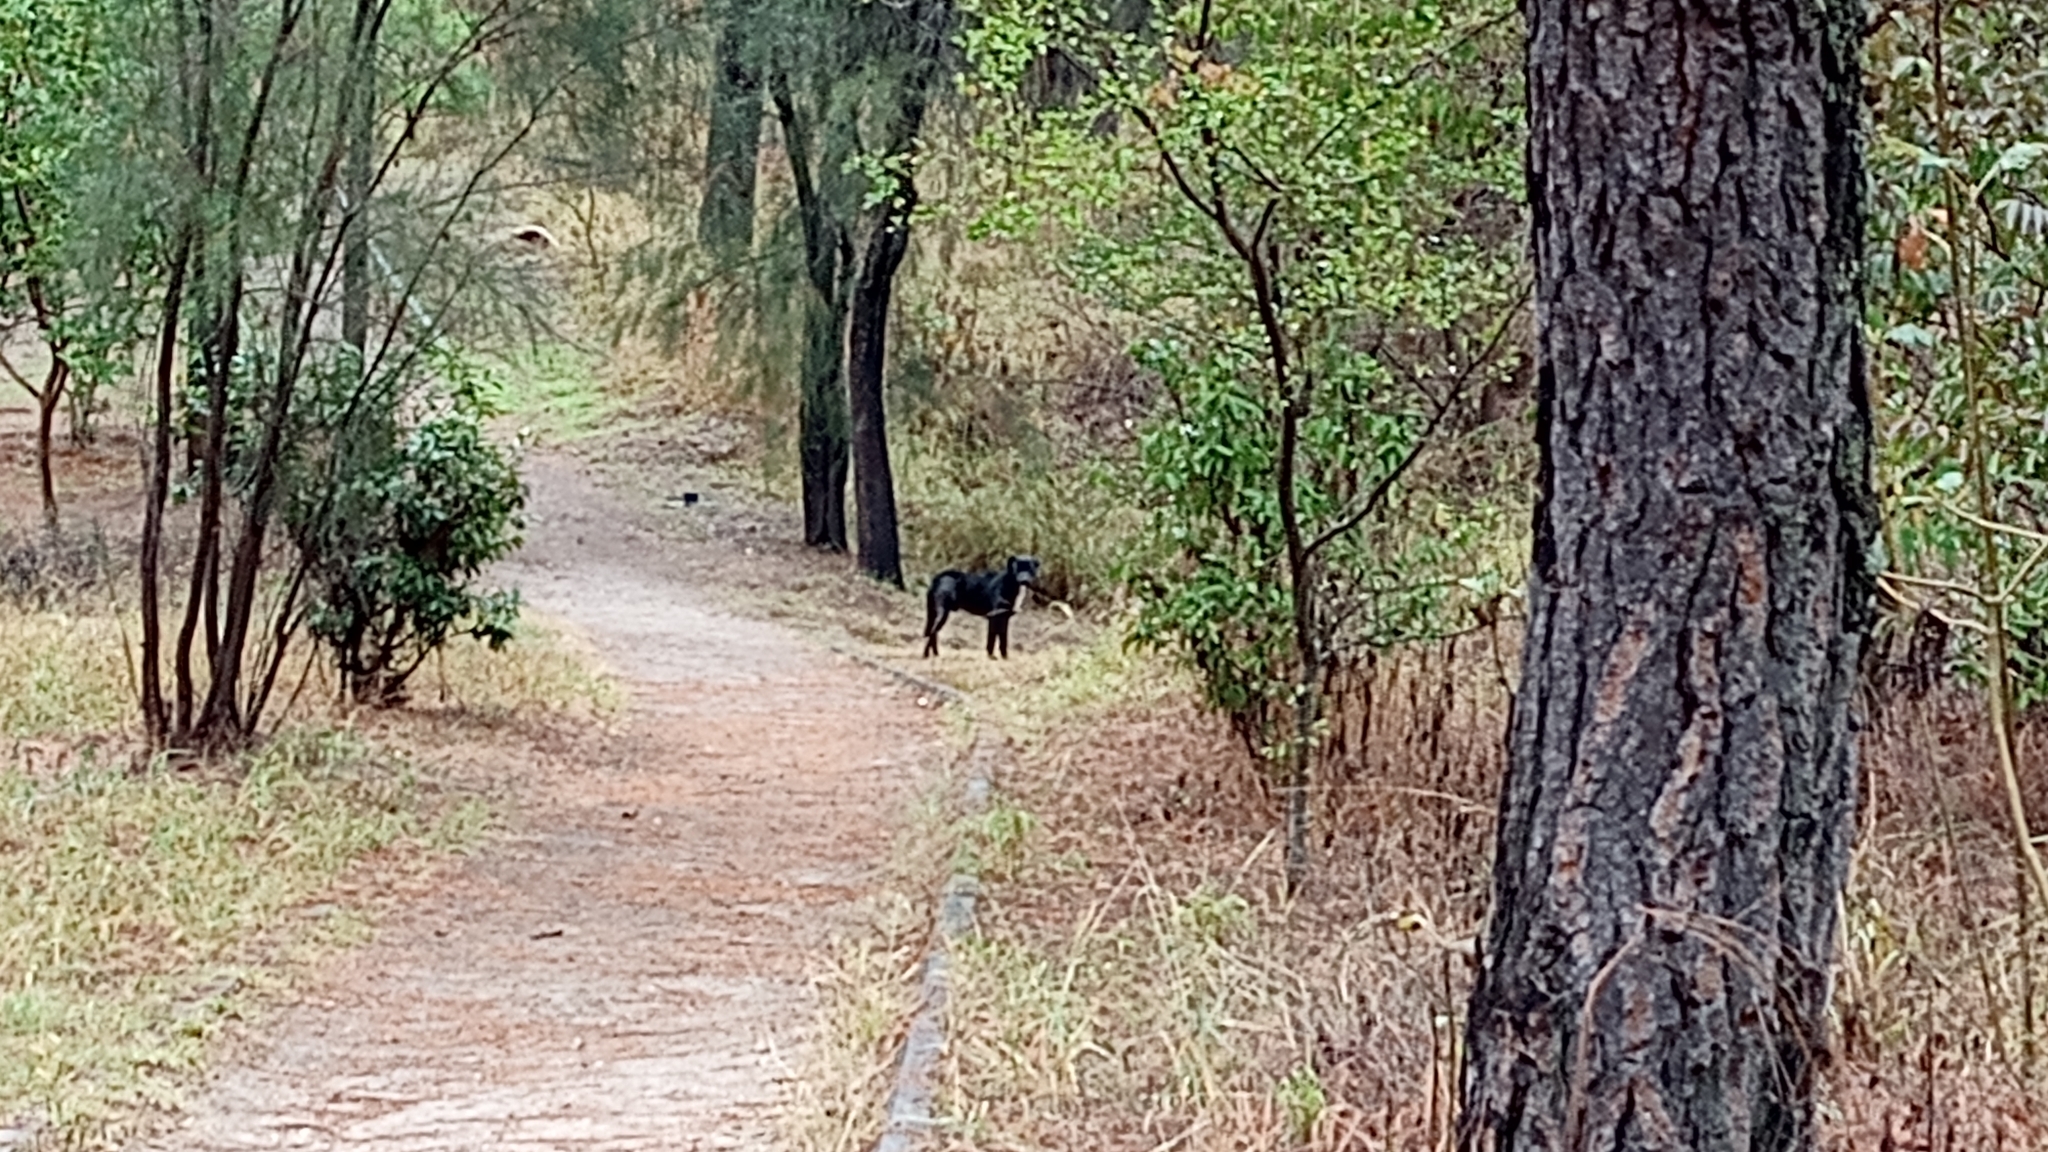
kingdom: Animalia
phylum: Chordata
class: Mammalia
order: Carnivora
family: Canidae
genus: Canis
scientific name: Canis lupus
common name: Gray wolf
